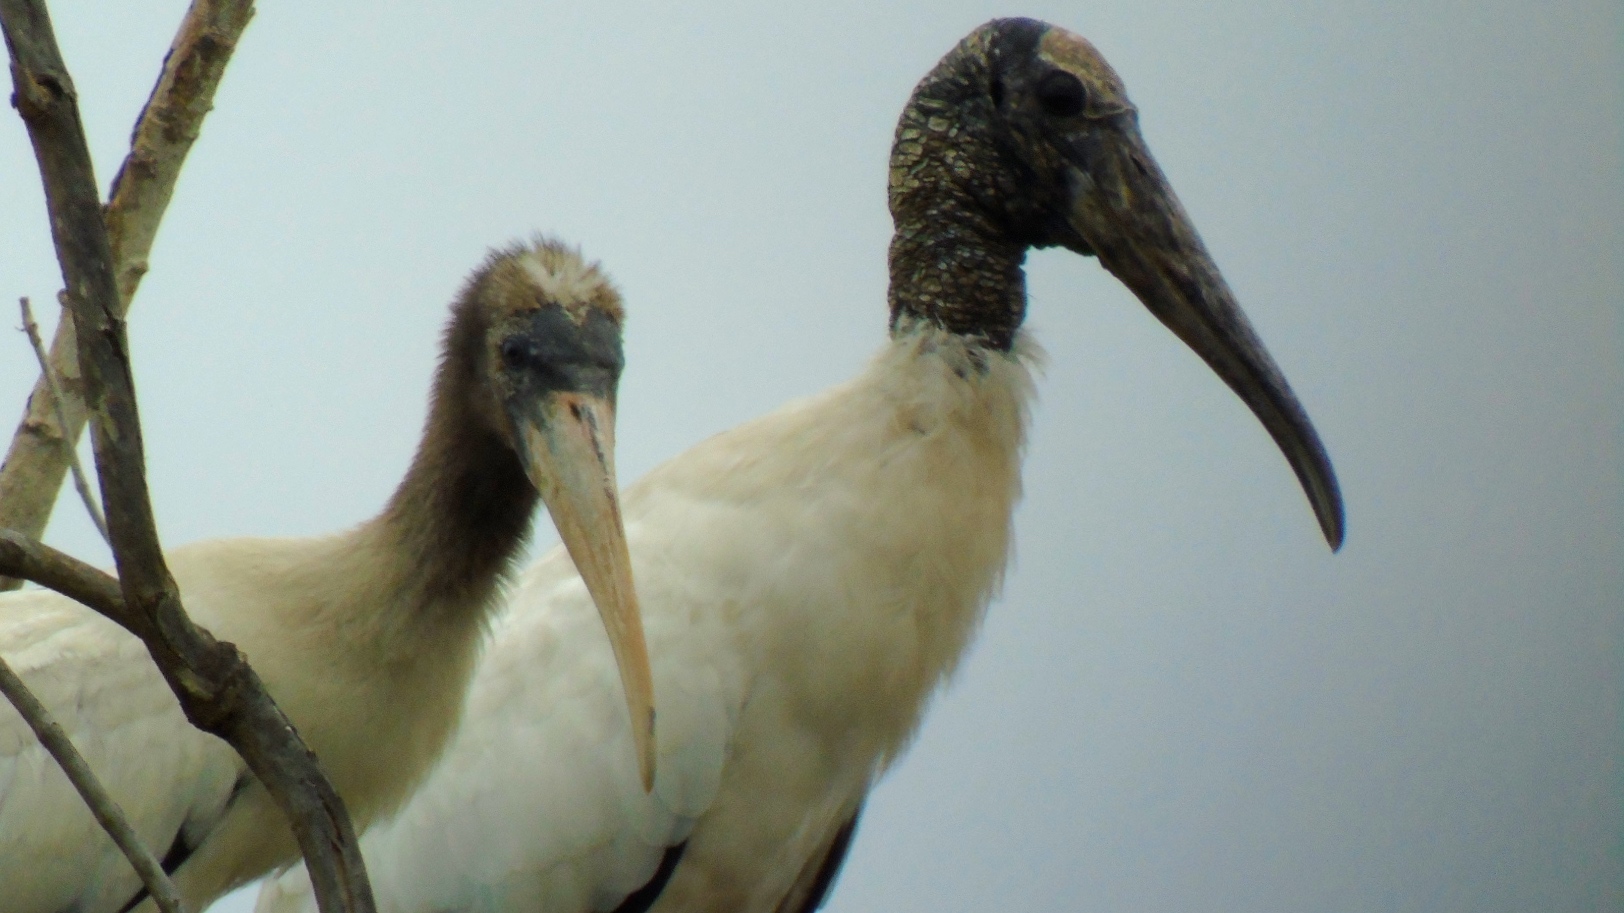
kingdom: Animalia
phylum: Chordata
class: Aves
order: Ciconiiformes
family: Ciconiidae
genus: Mycteria
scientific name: Mycteria americana
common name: Wood stork
